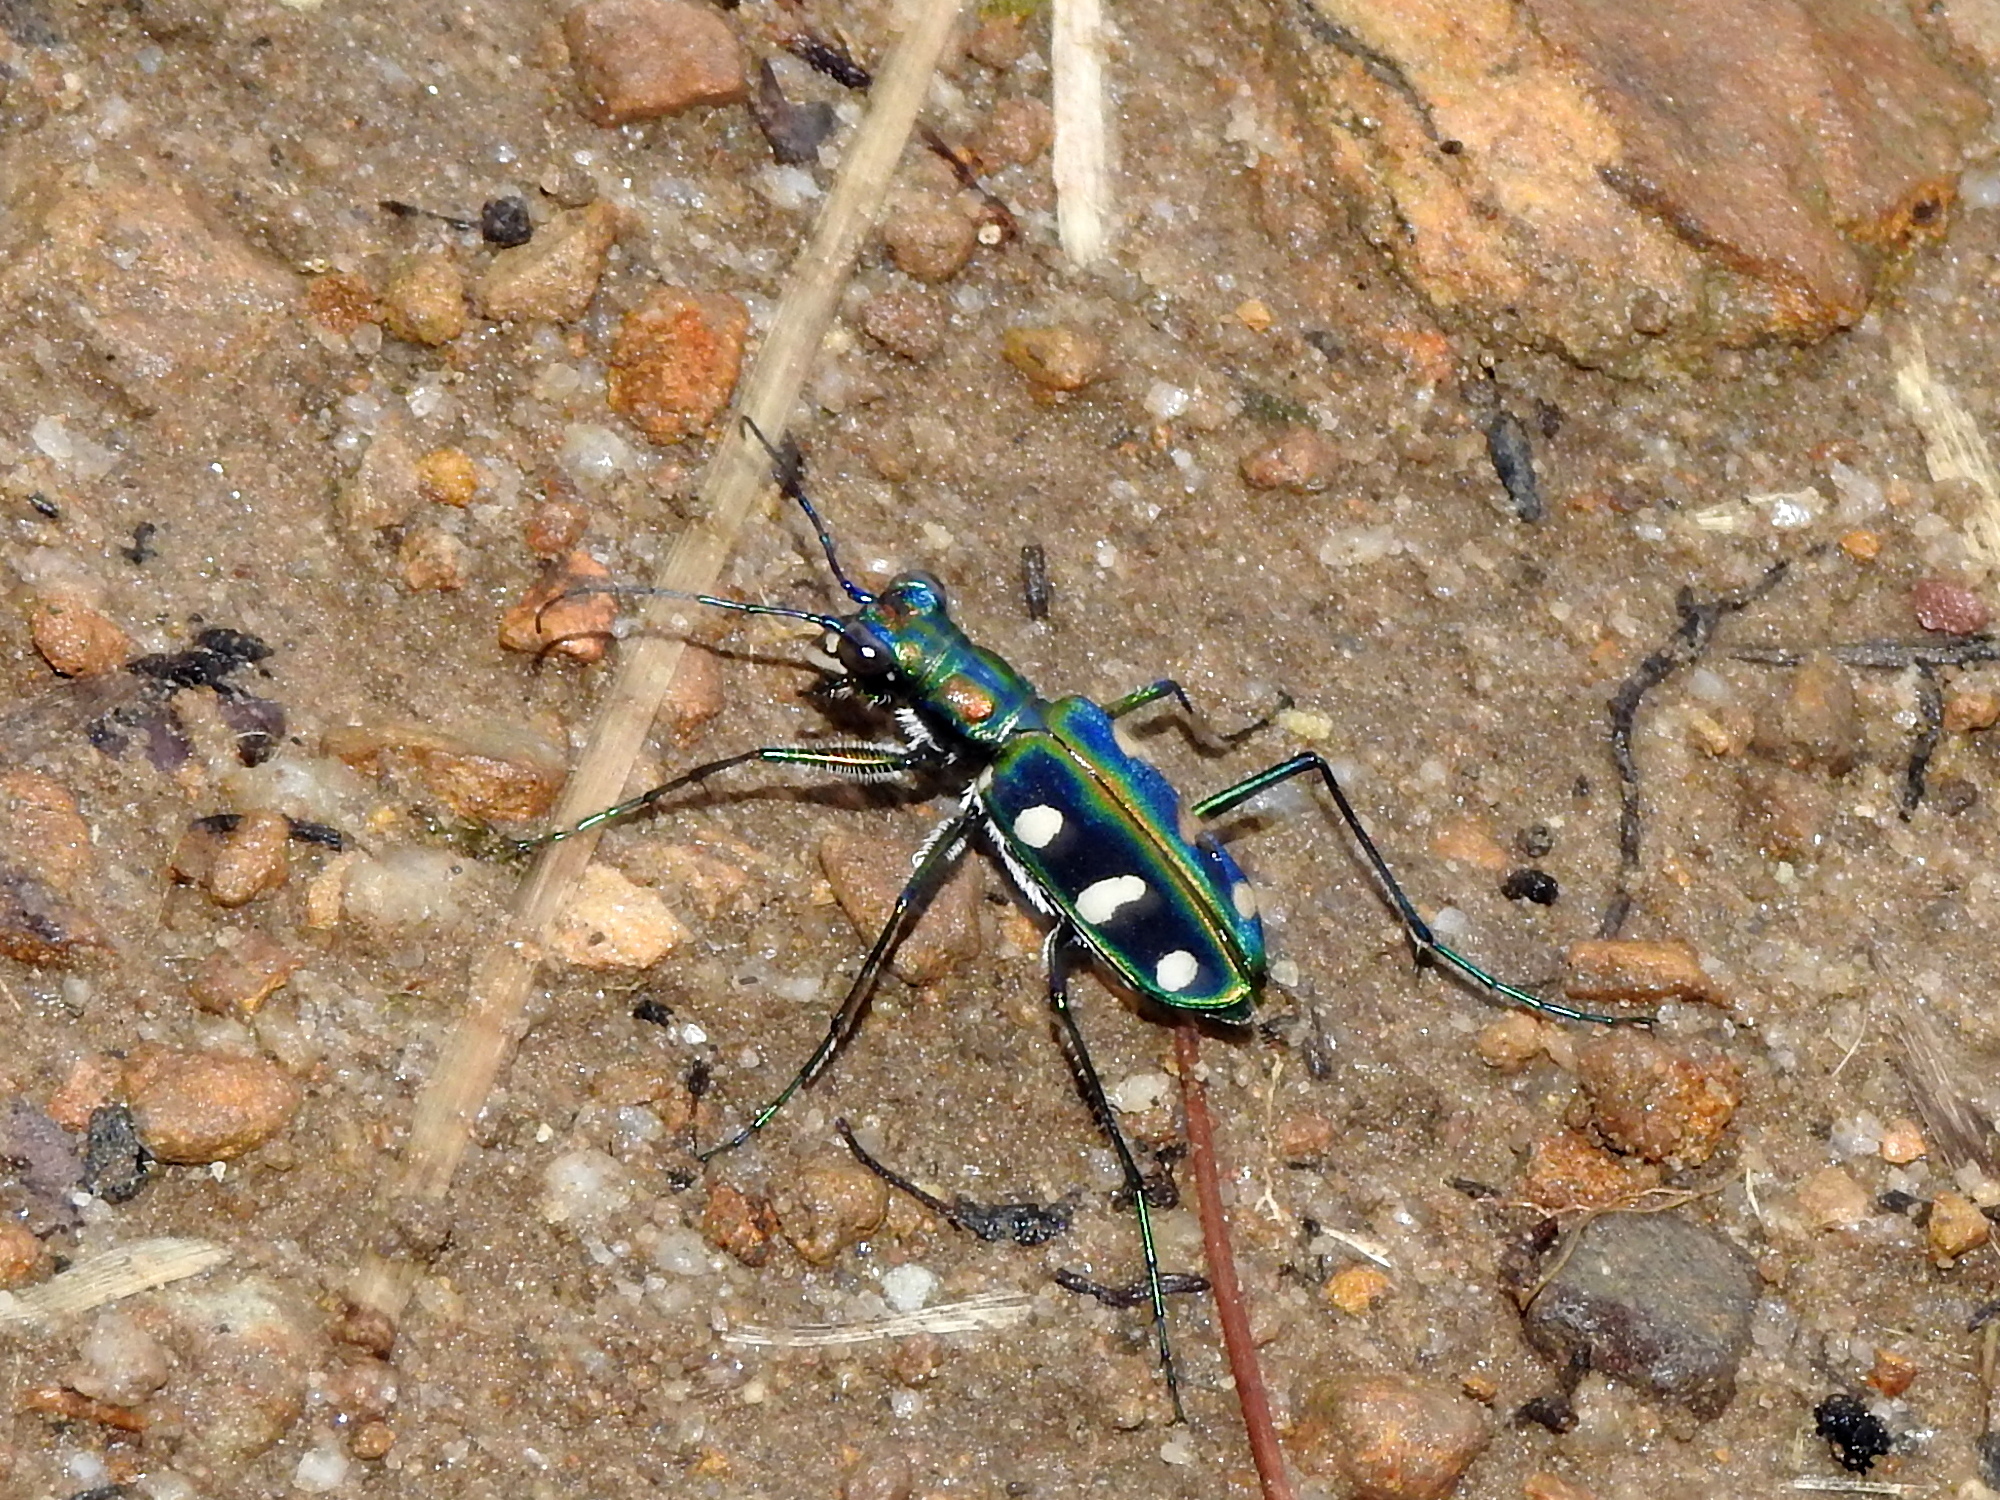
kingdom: Animalia
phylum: Arthropoda
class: Insecta
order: Coleoptera
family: Carabidae
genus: Cicindela
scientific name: Cicindela batesi
